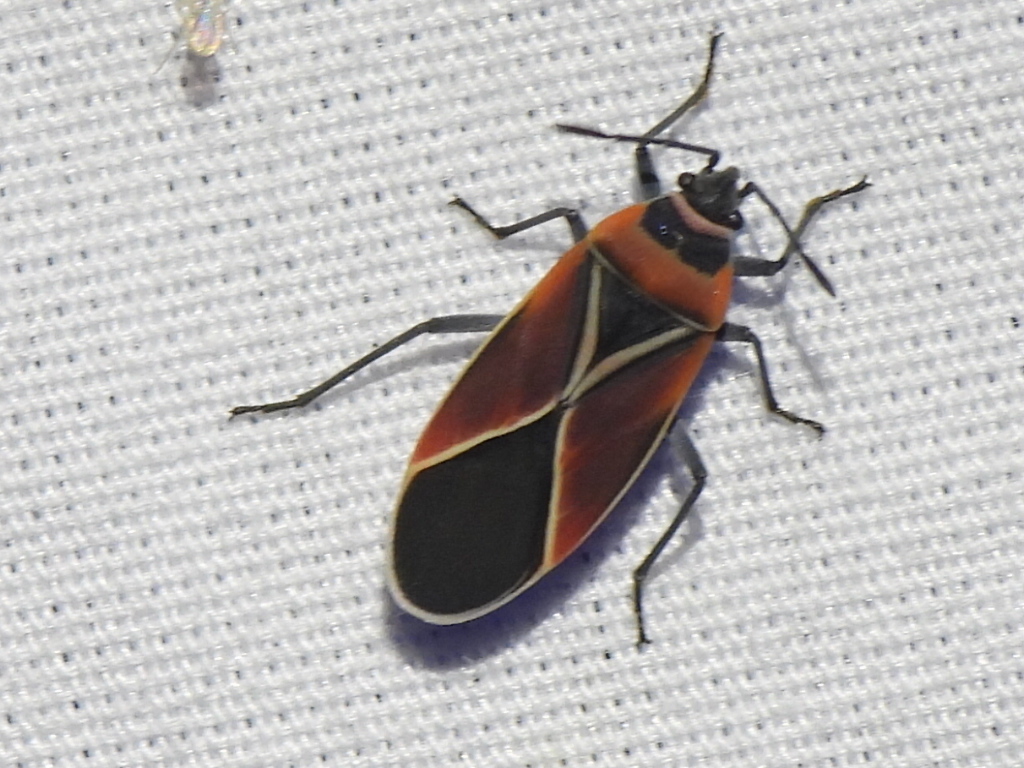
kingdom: Animalia
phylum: Arthropoda
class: Insecta
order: Hemiptera
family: Lygaeidae
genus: Neacoryphus
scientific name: Neacoryphus bicrucis
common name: Lygaeid bug
